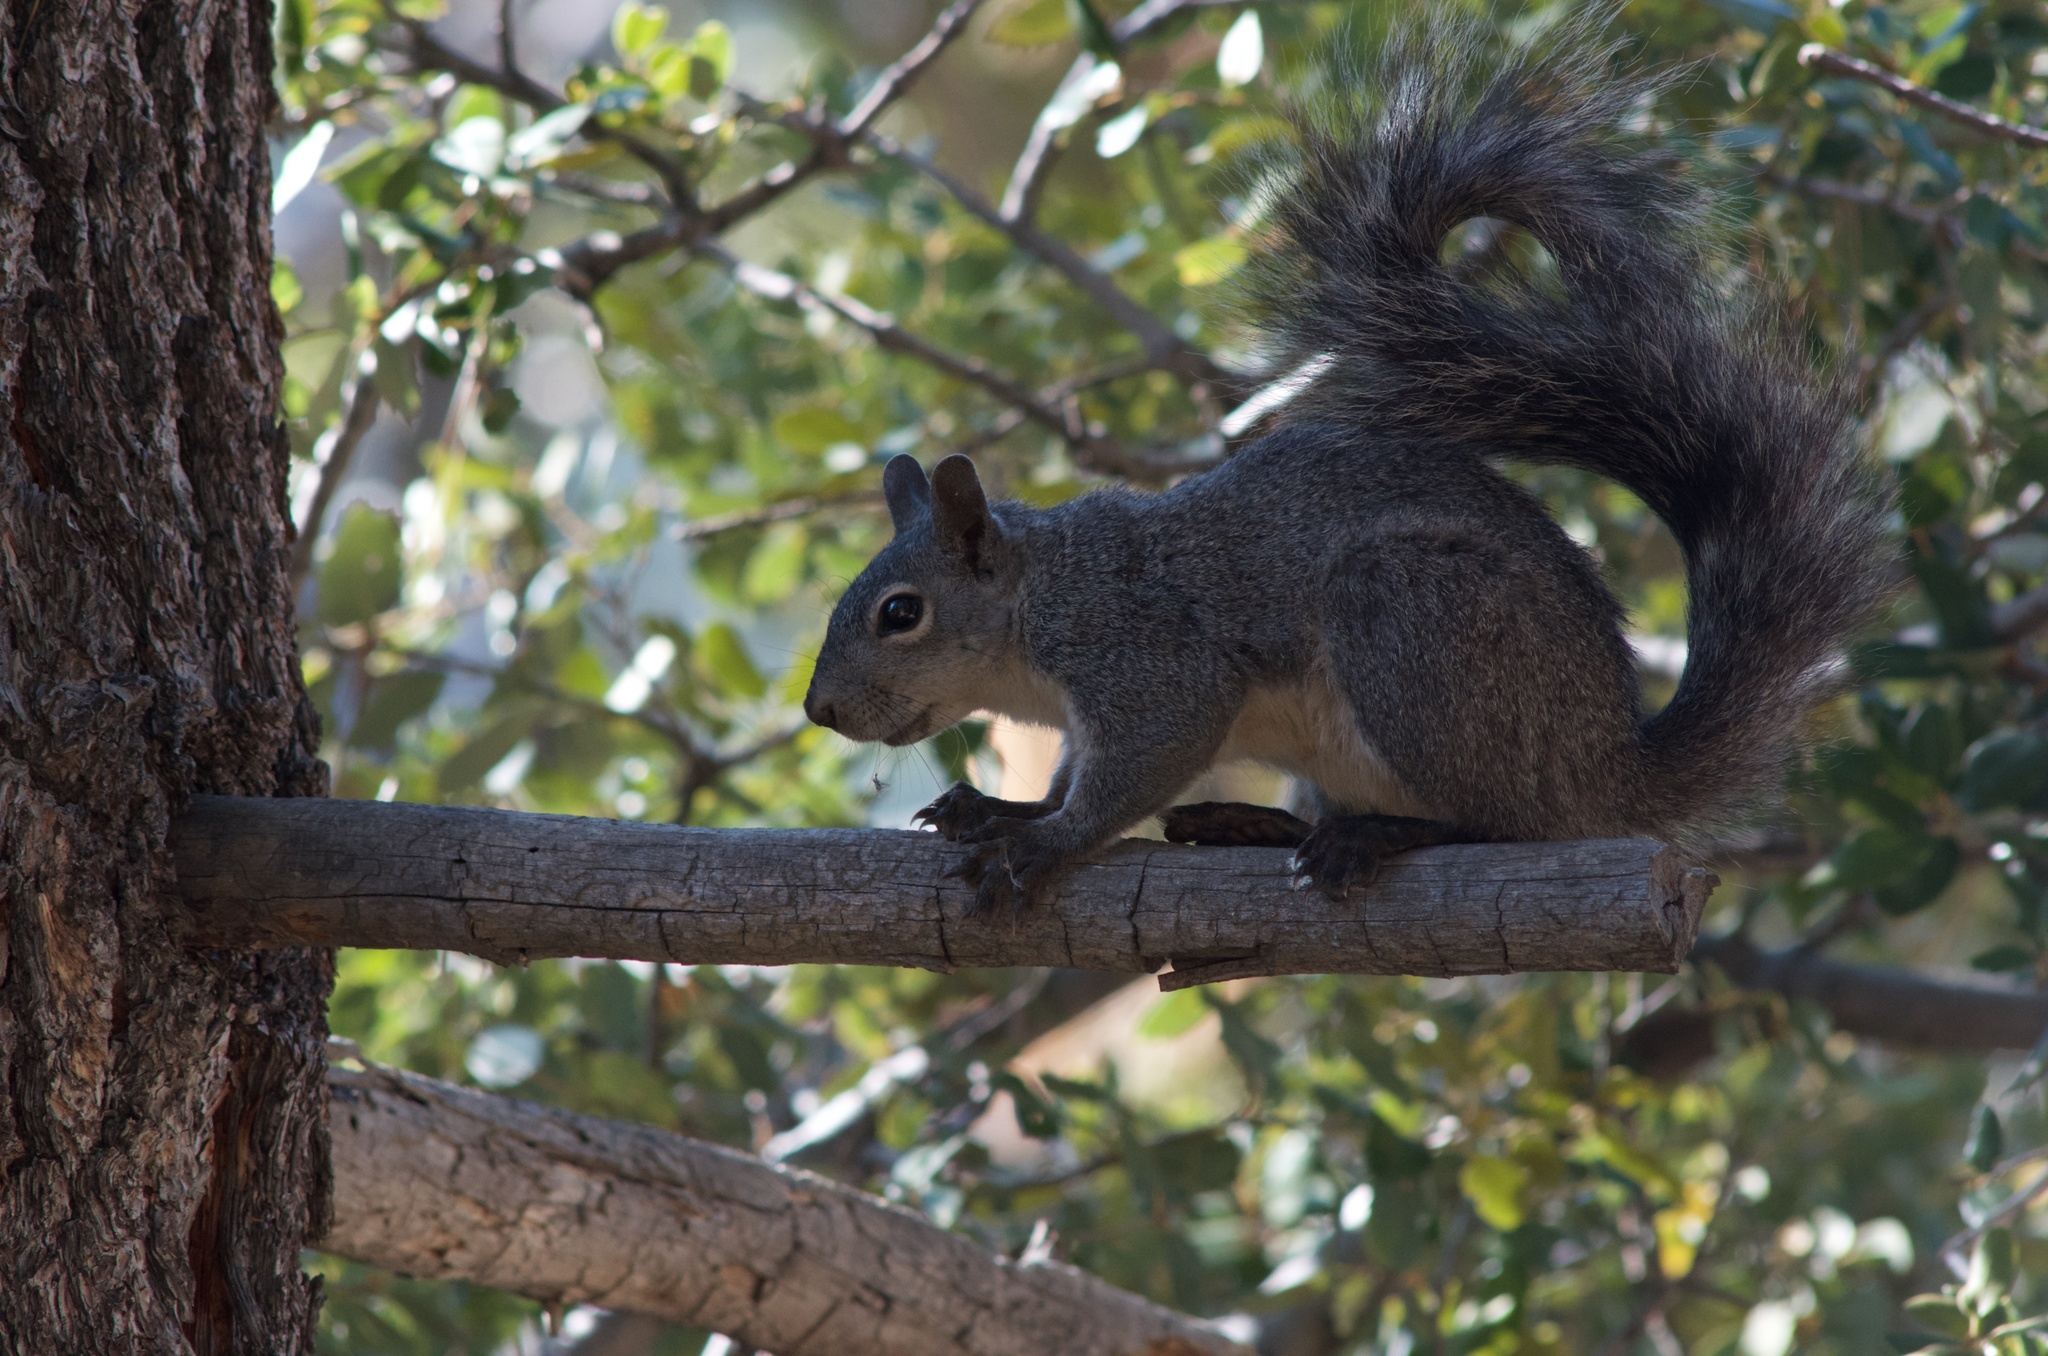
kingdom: Animalia
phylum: Chordata
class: Mammalia
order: Rodentia
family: Sciuridae
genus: Sciurus
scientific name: Sciurus griseus
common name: Western gray squirrel
